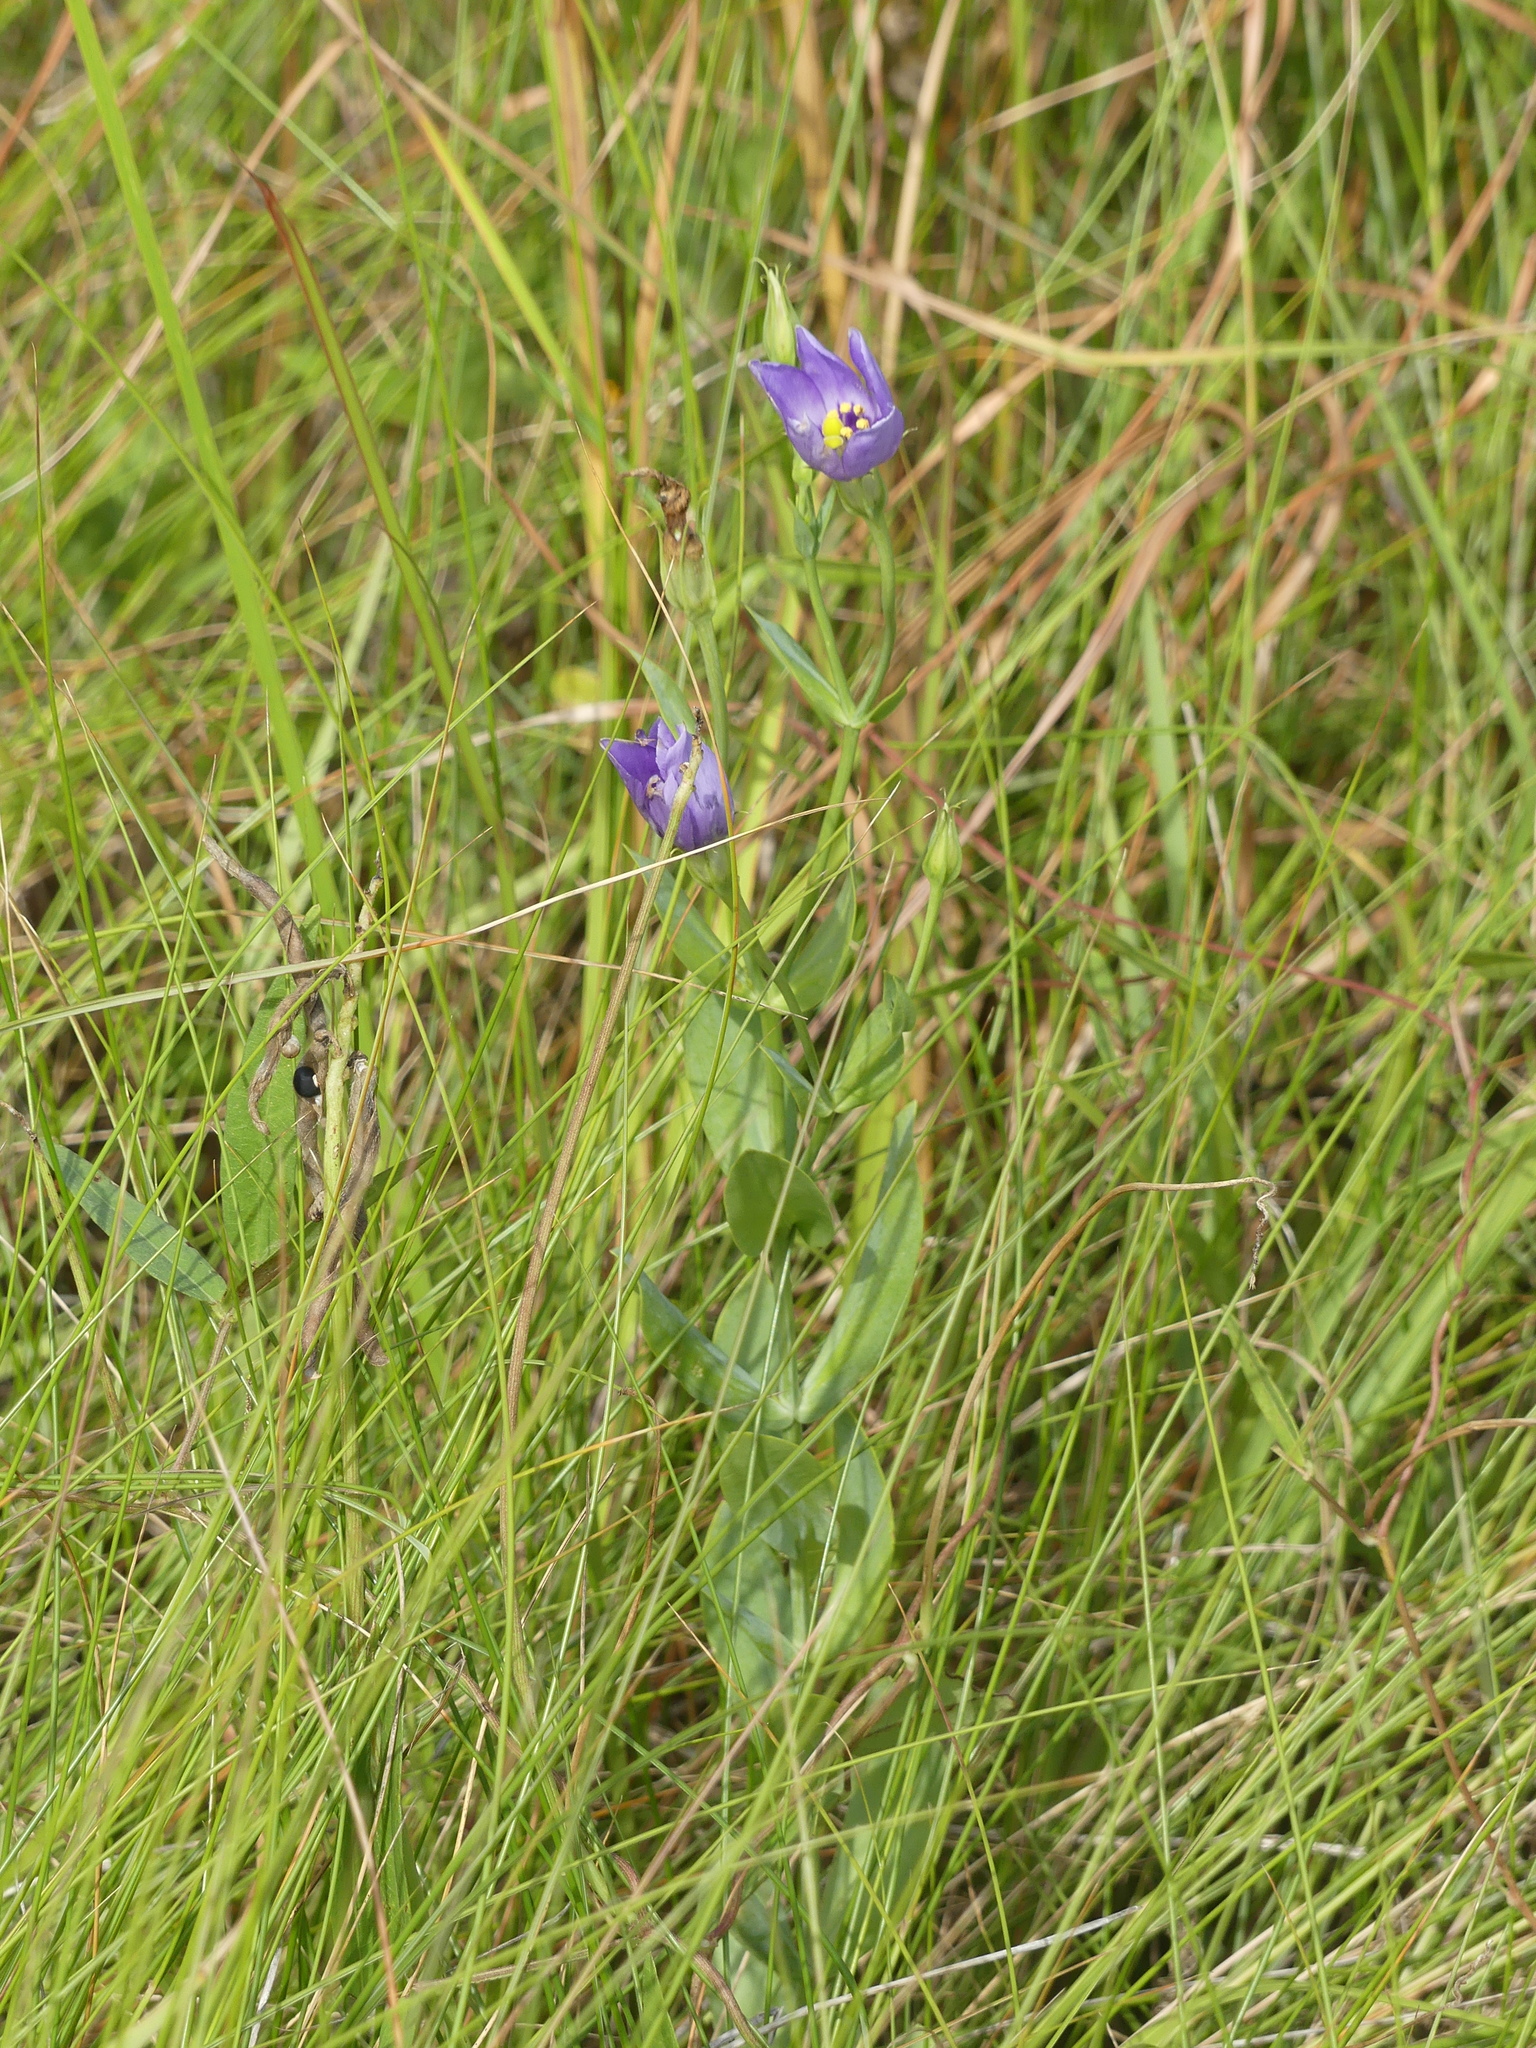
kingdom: Plantae
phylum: Tracheophyta
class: Magnoliopsida
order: Gentianales
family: Gentianaceae
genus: Eustoma
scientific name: Eustoma exaltatum
